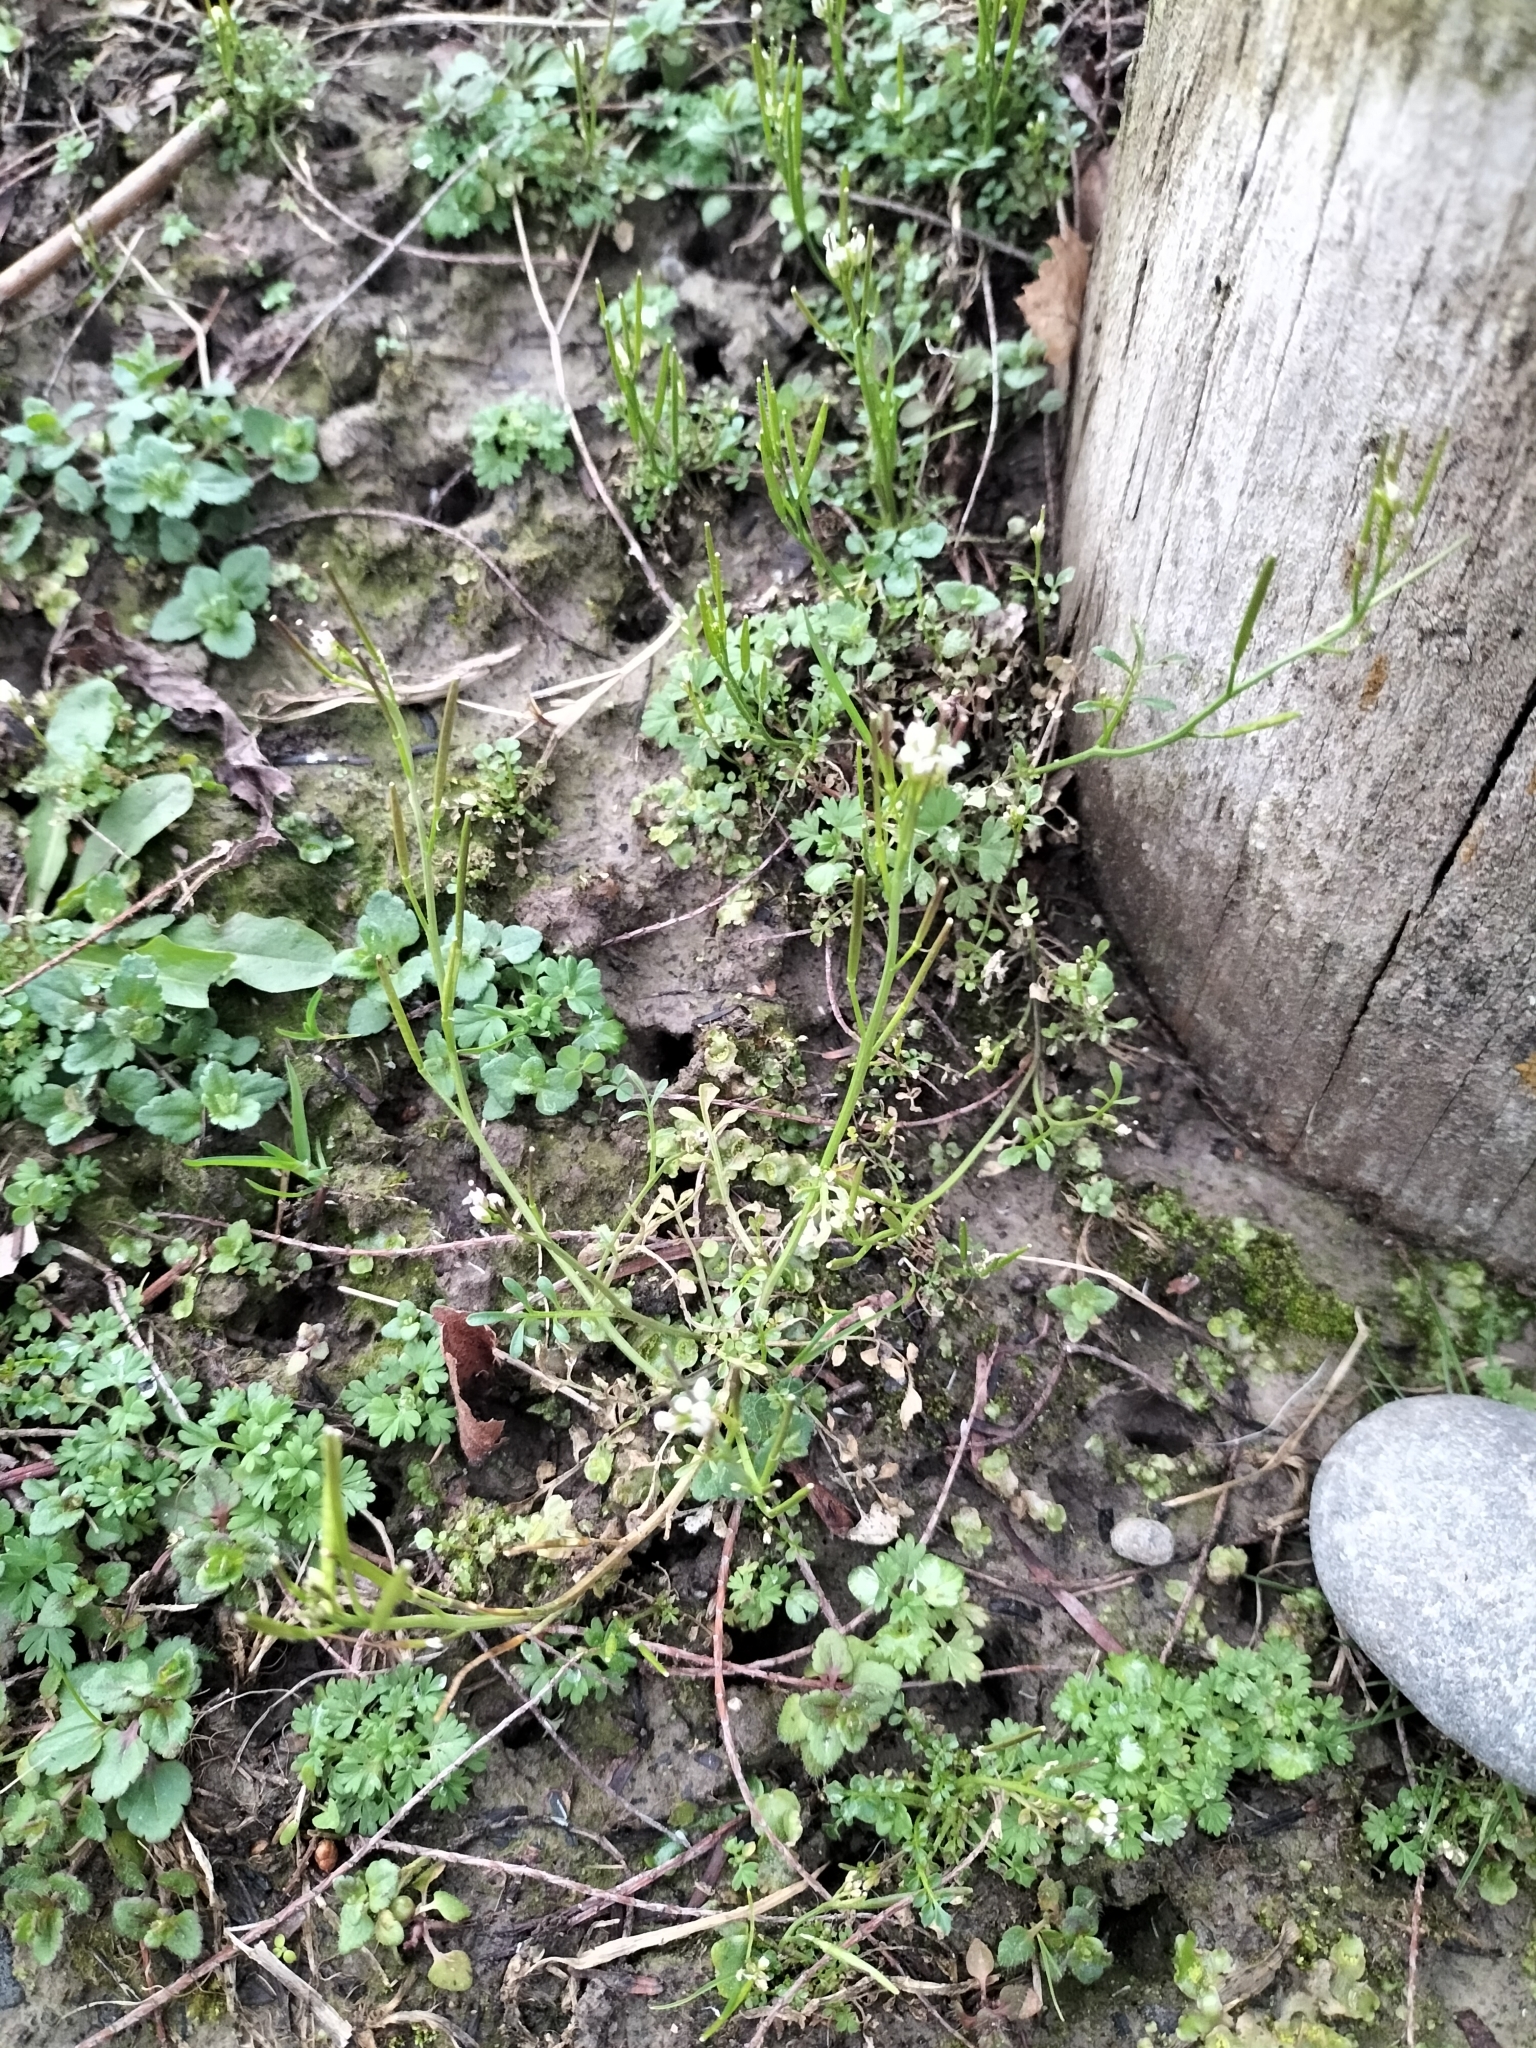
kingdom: Plantae
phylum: Tracheophyta
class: Magnoliopsida
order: Brassicales
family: Brassicaceae
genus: Cardamine
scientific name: Cardamine hirsuta
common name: Hairy bittercress
